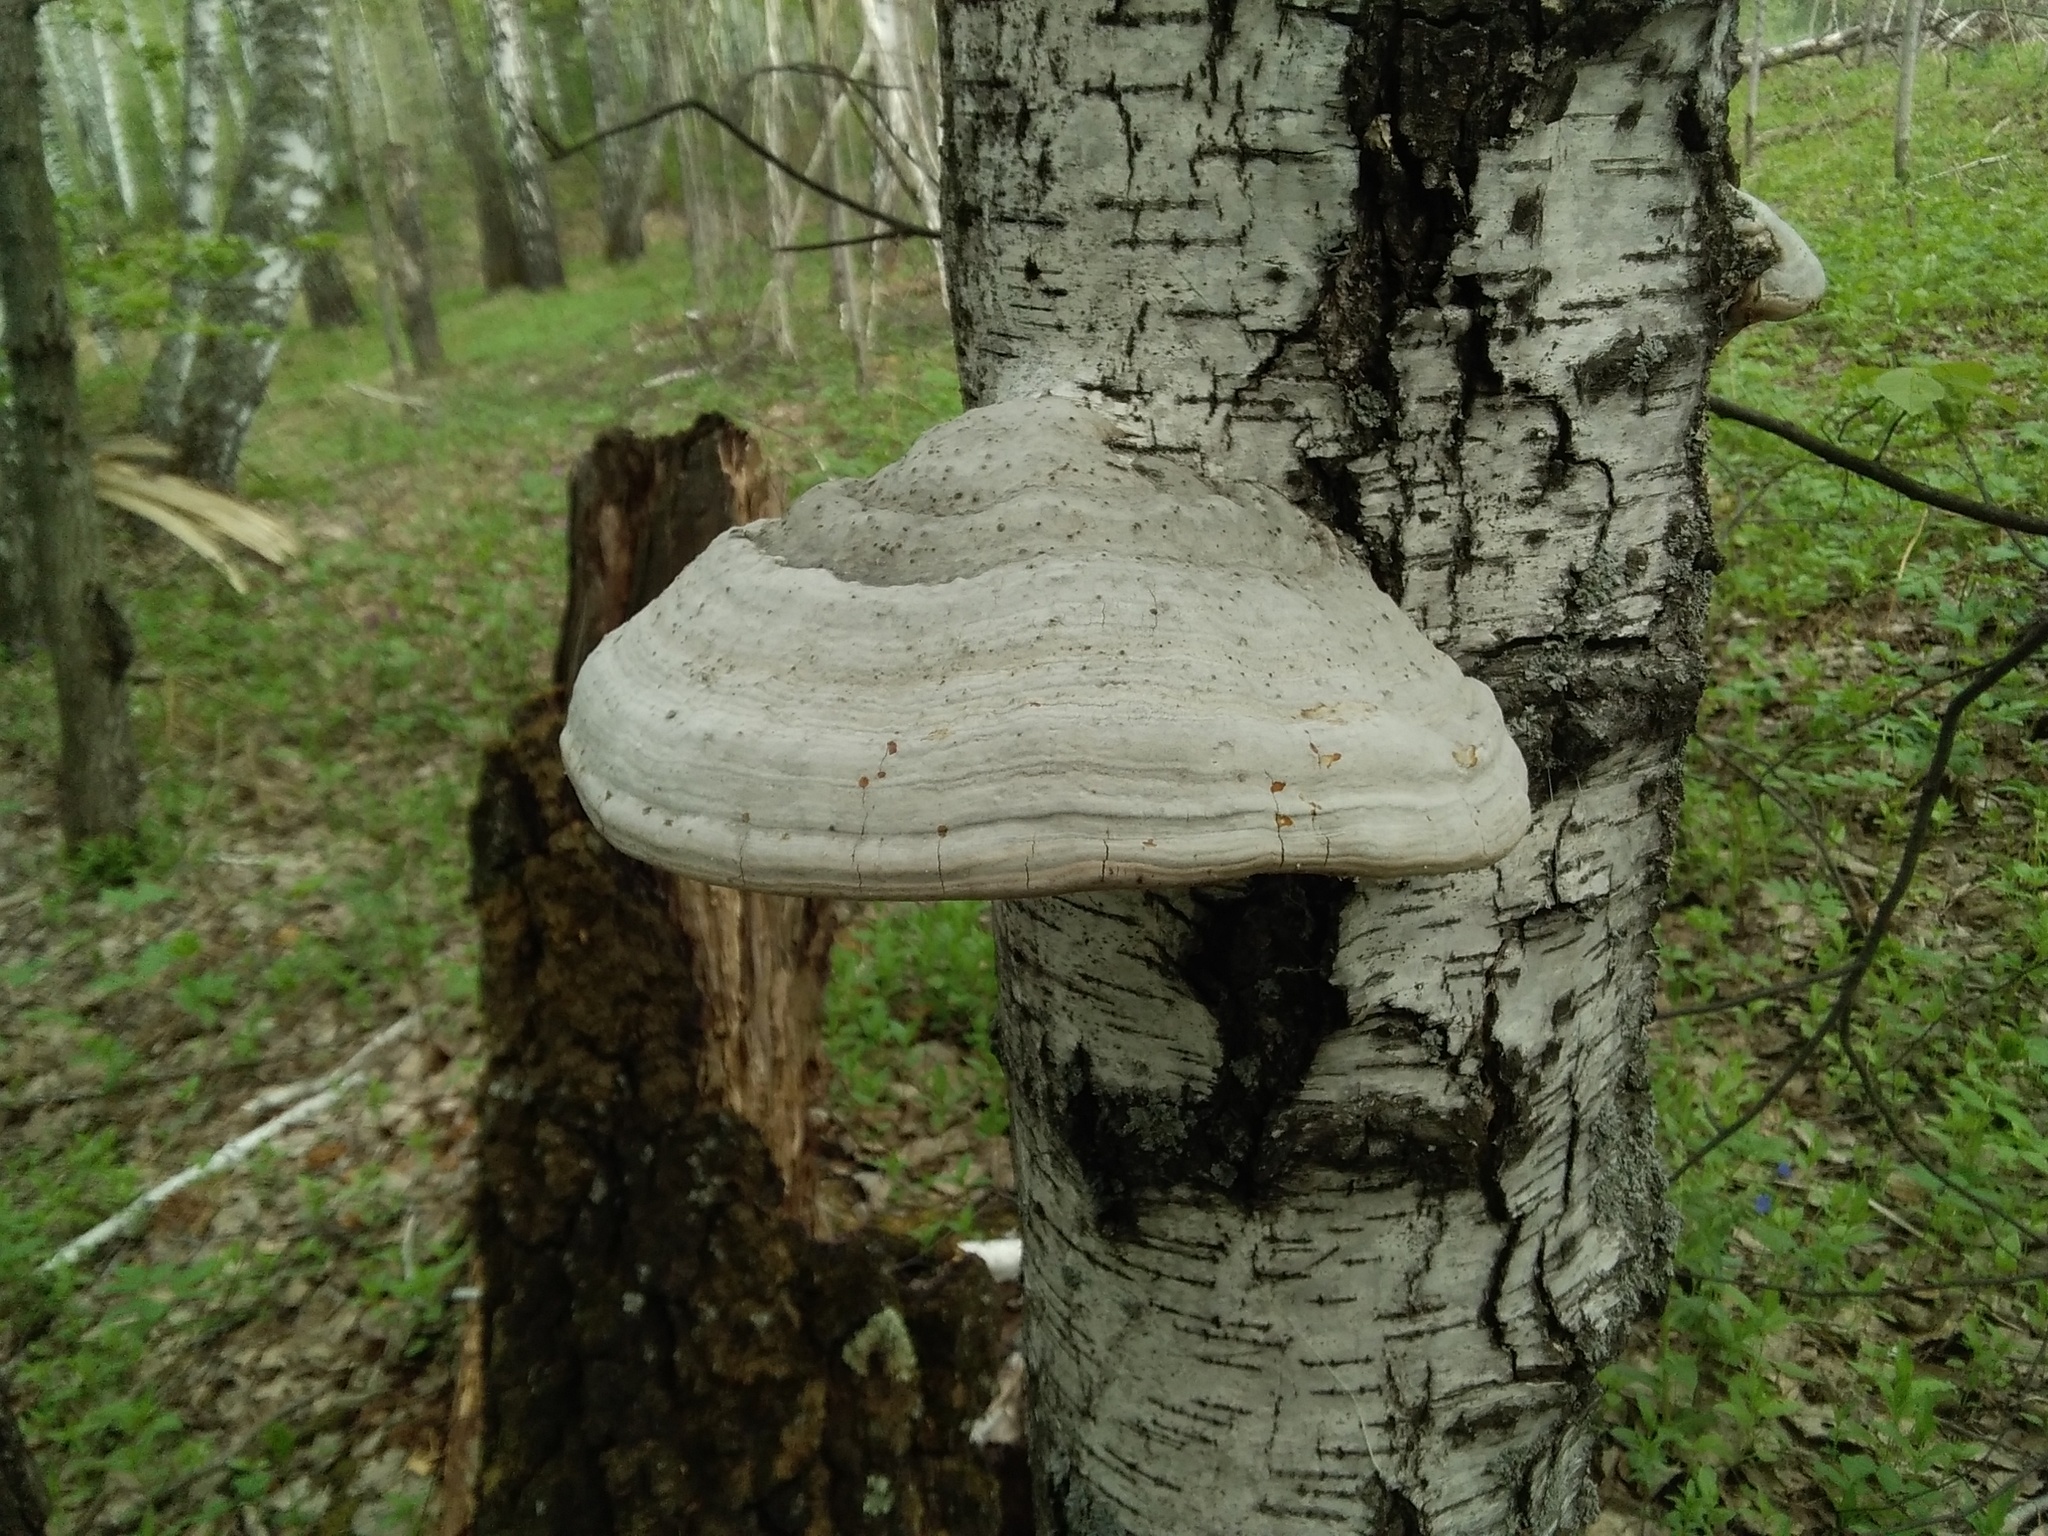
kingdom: Fungi
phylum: Basidiomycota
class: Agaricomycetes
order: Polyporales
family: Polyporaceae
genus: Fomes
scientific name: Fomes fomentarius
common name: Hoof fungus
